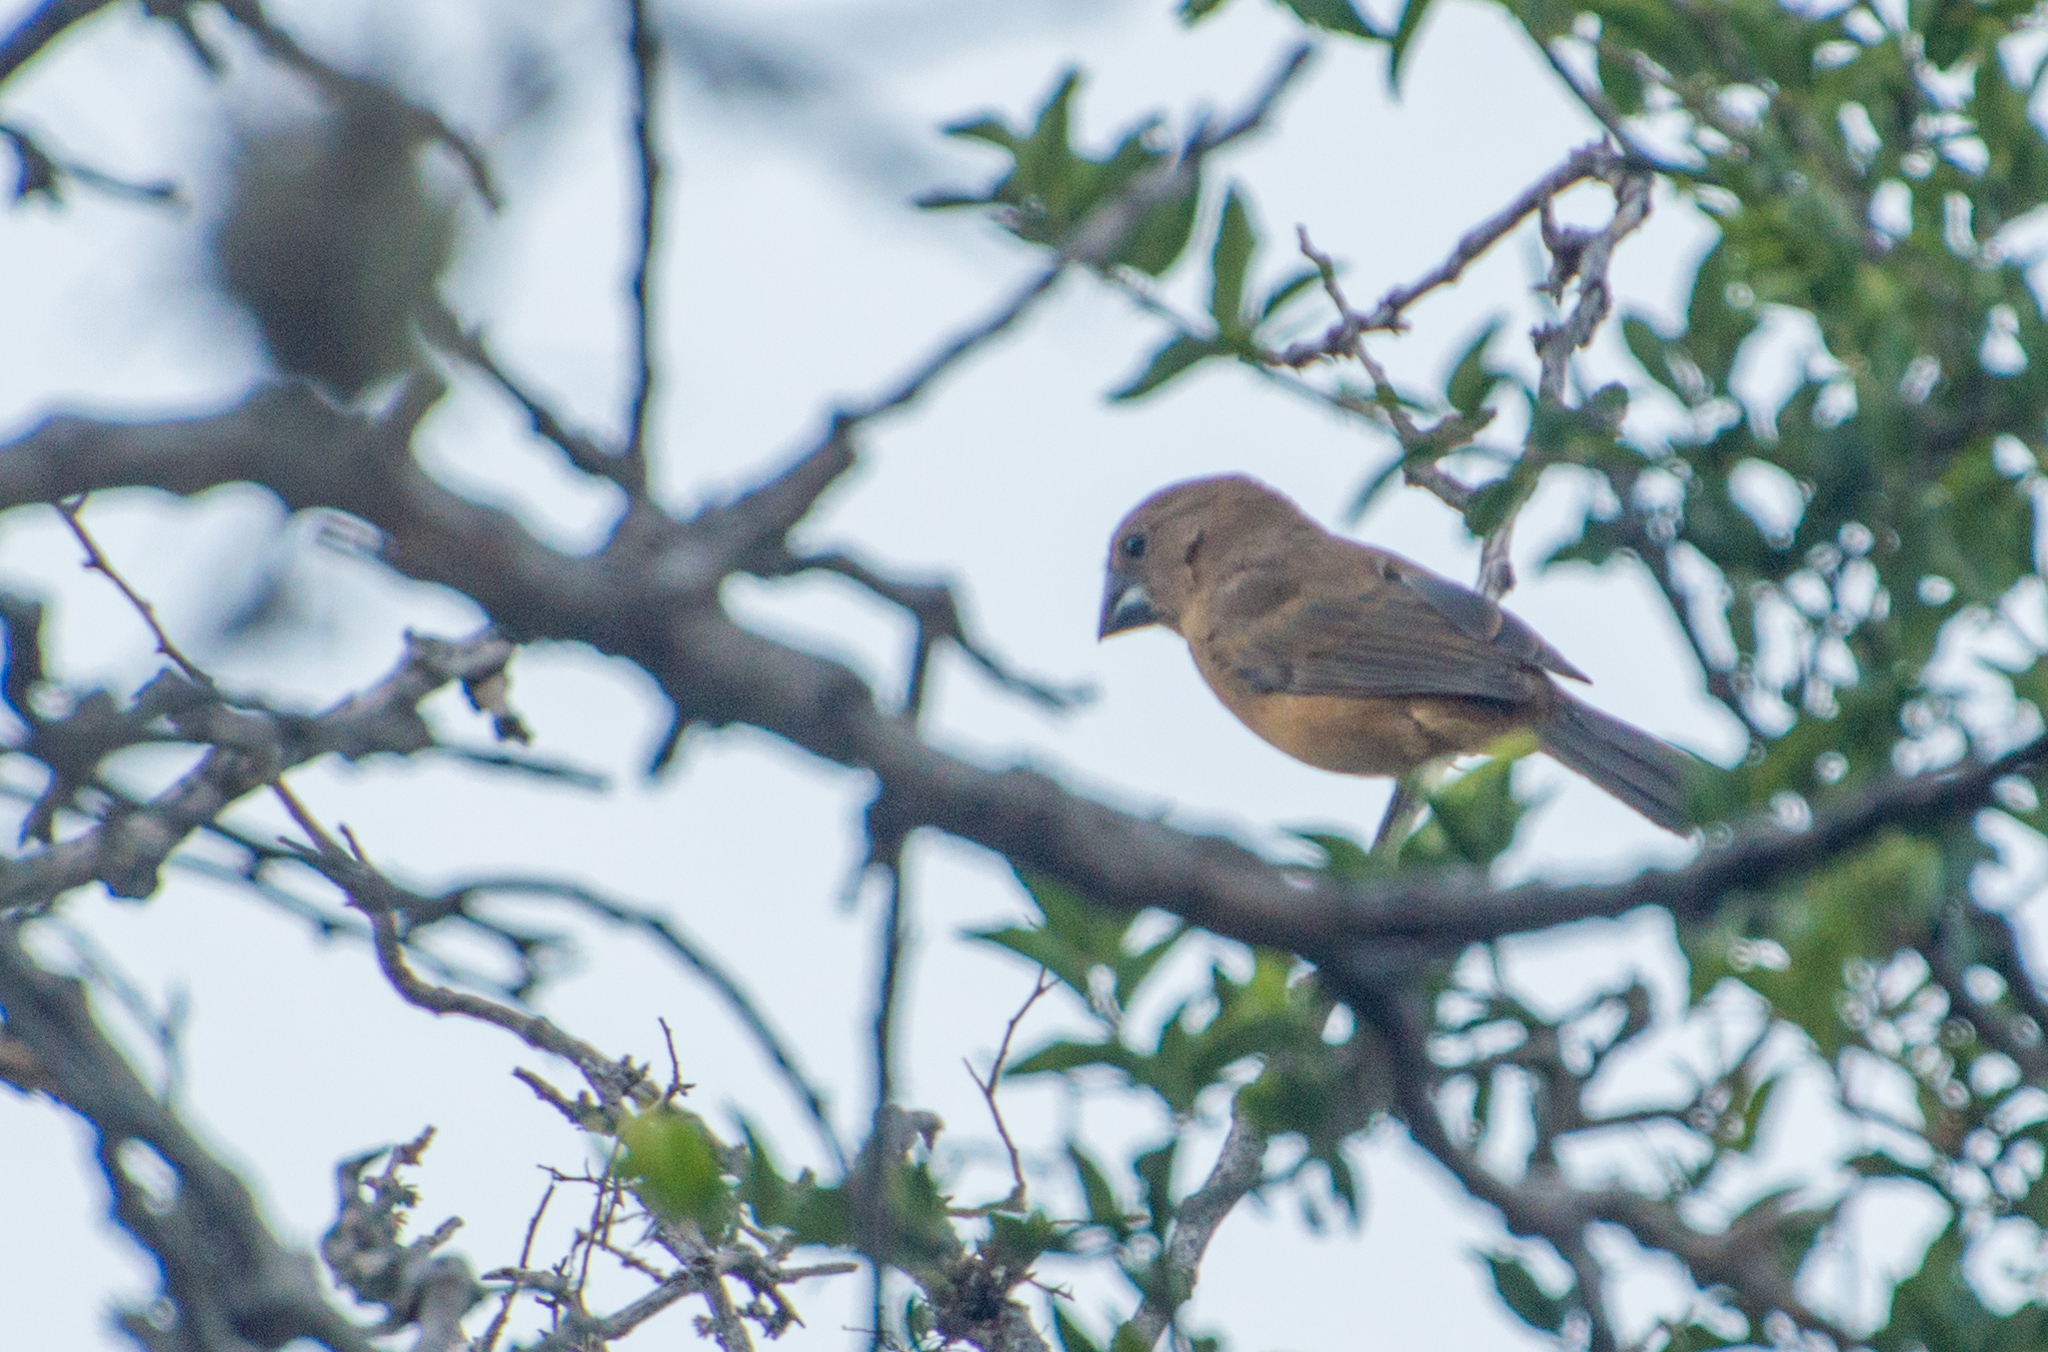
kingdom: Animalia
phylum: Chordata
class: Aves
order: Passeriformes
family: Cardinalidae
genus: Cyanoloxia
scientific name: Cyanoloxia brissonii
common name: Ultramarine grosbeak
